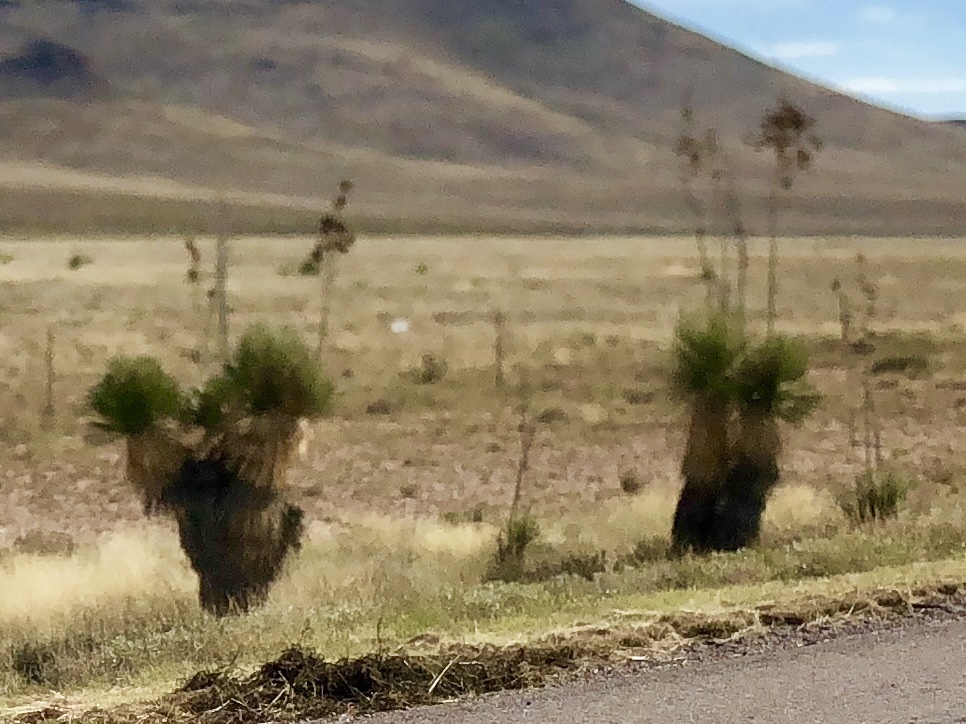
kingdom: Plantae
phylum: Tracheophyta
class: Liliopsida
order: Asparagales
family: Asparagaceae
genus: Yucca
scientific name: Yucca elata
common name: Palmella
